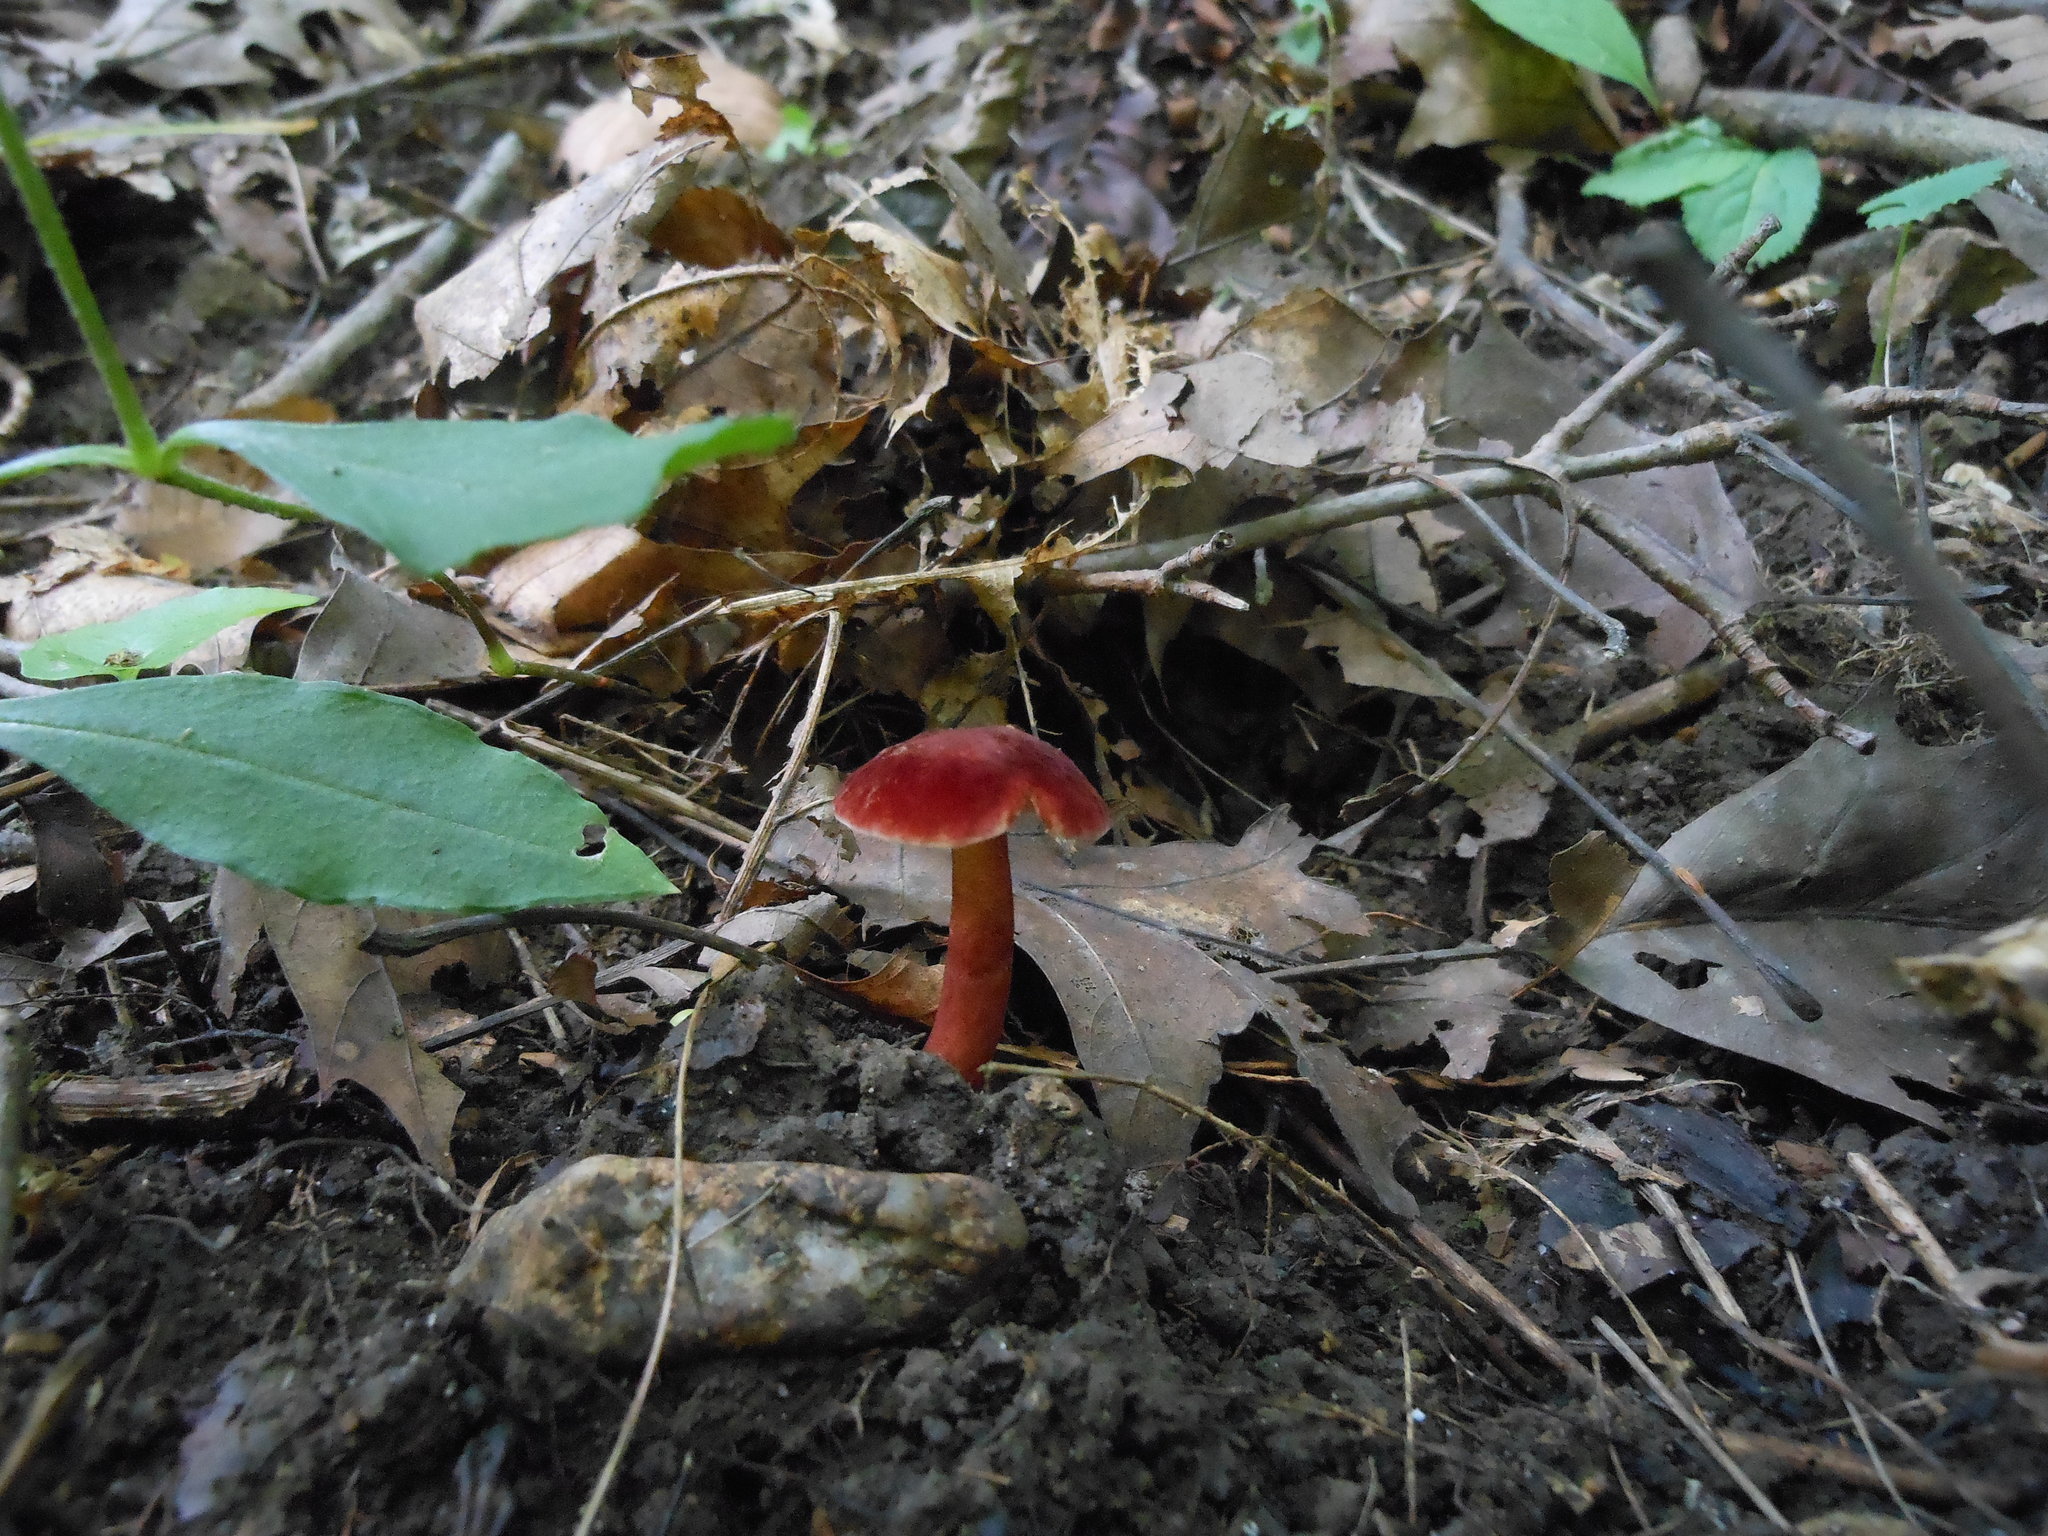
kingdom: Fungi
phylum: Basidiomycota
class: Agaricomycetes
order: Boletales
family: Gyroporaceae
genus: Gyroporus
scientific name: Gyroporus purpurinus
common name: Red gyroporus
